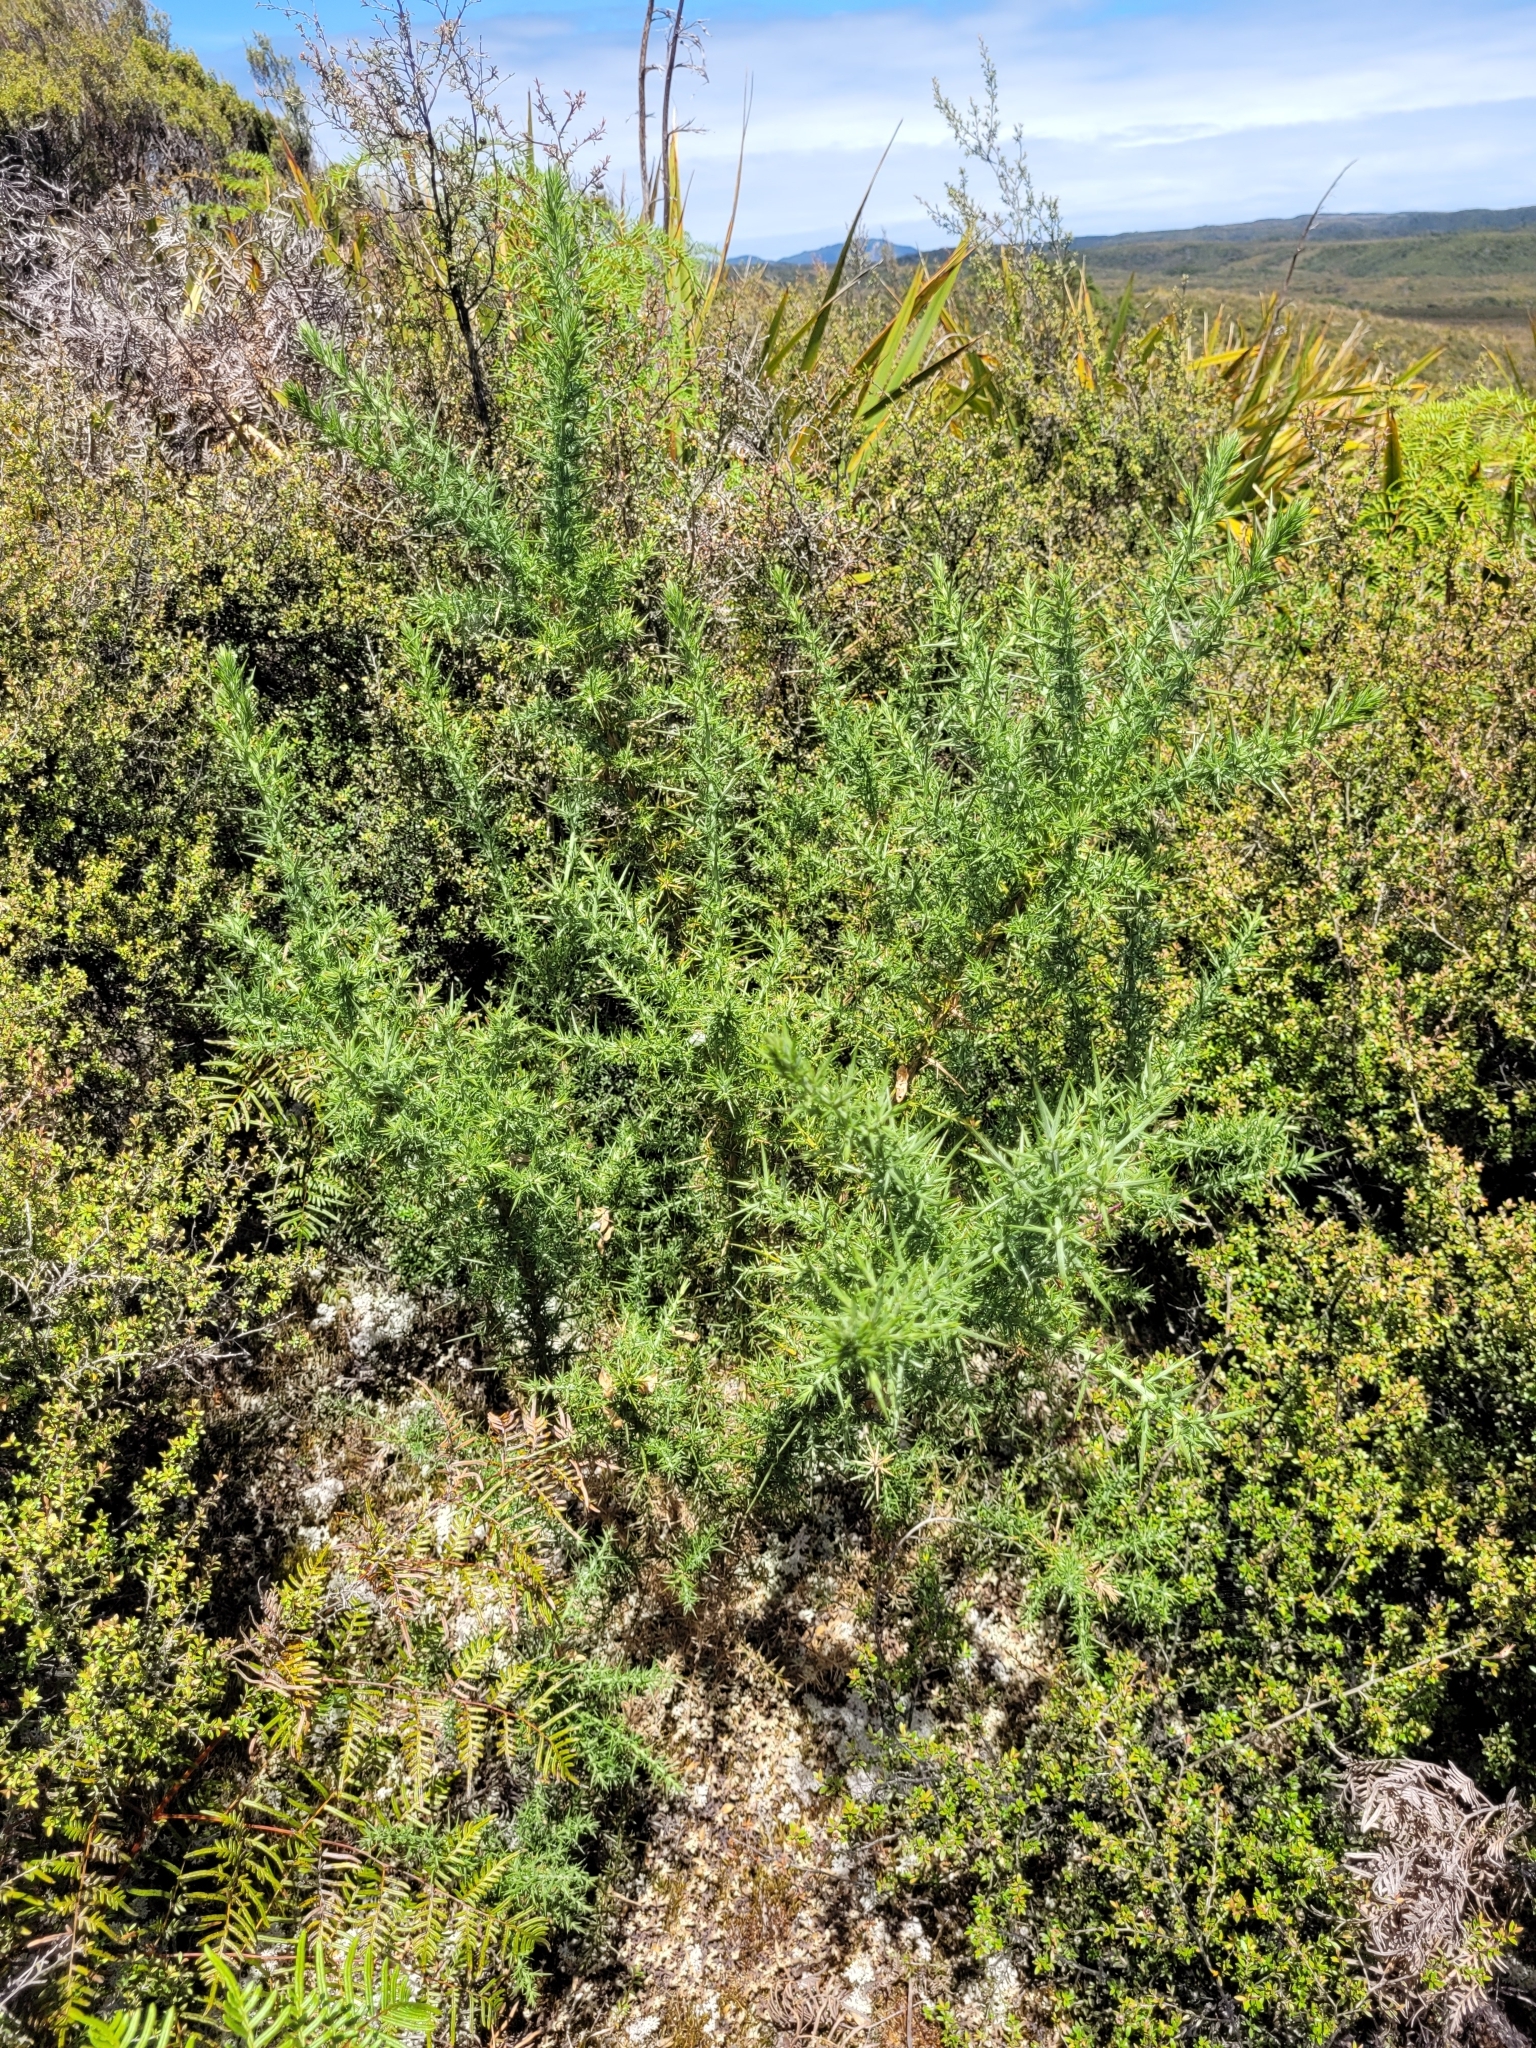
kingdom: Plantae
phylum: Tracheophyta
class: Magnoliopsida
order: Fabales
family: Fabaceae
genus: Ulex
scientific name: Ulex europaeus
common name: Common gorse
